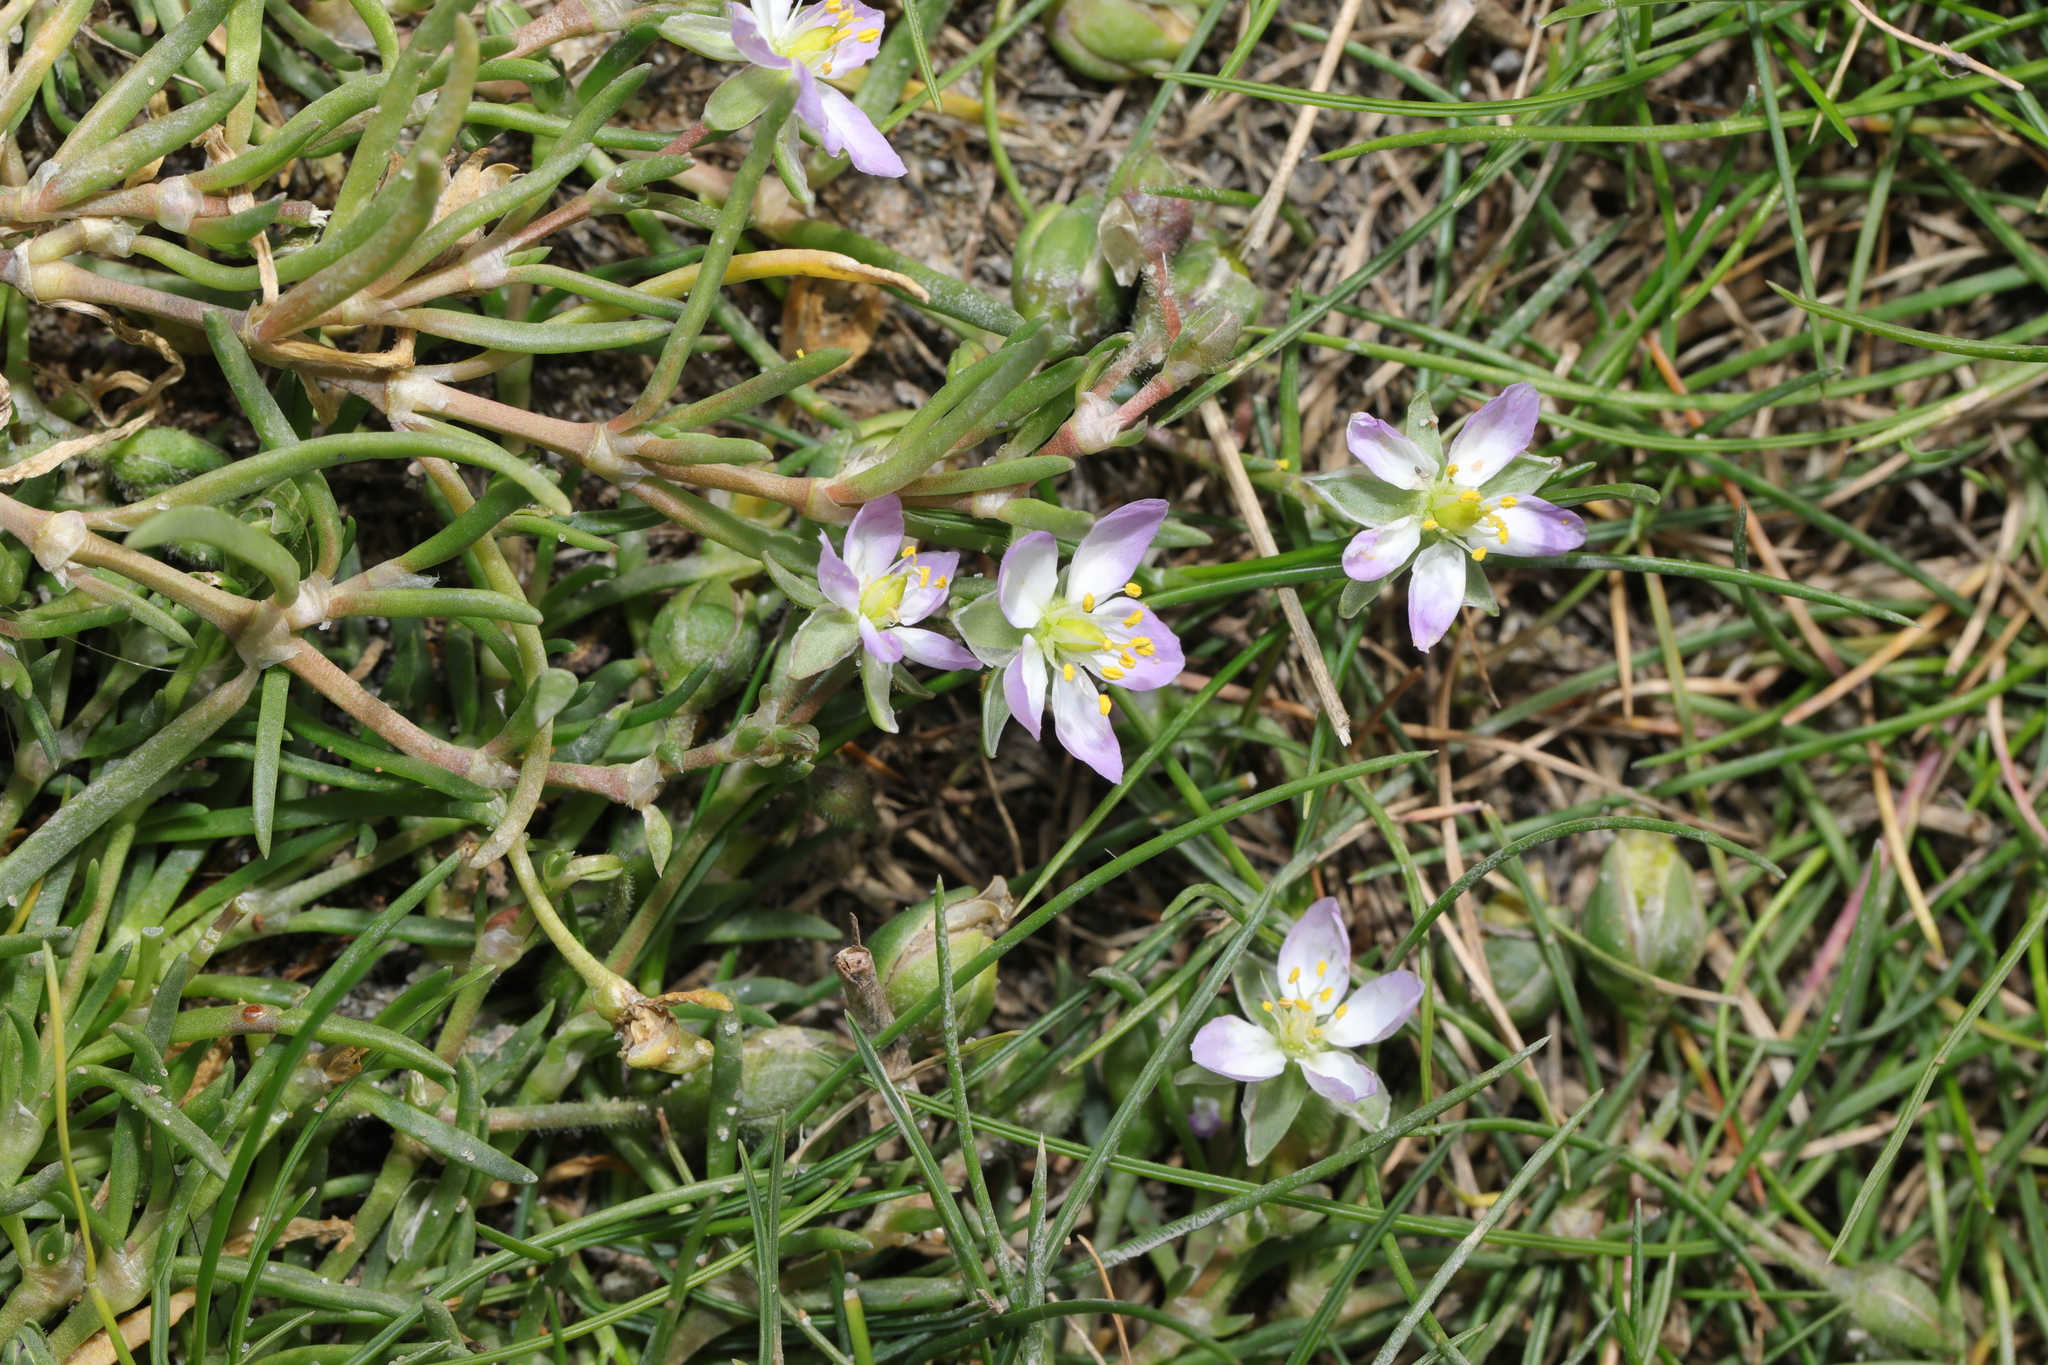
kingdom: Plantae
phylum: Tracheophyta
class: Magnoliopsida
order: Caryophyllales
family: Caryophyllaceae
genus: Spergularia
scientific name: Spergularia media
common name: Greater sea-spurrey
